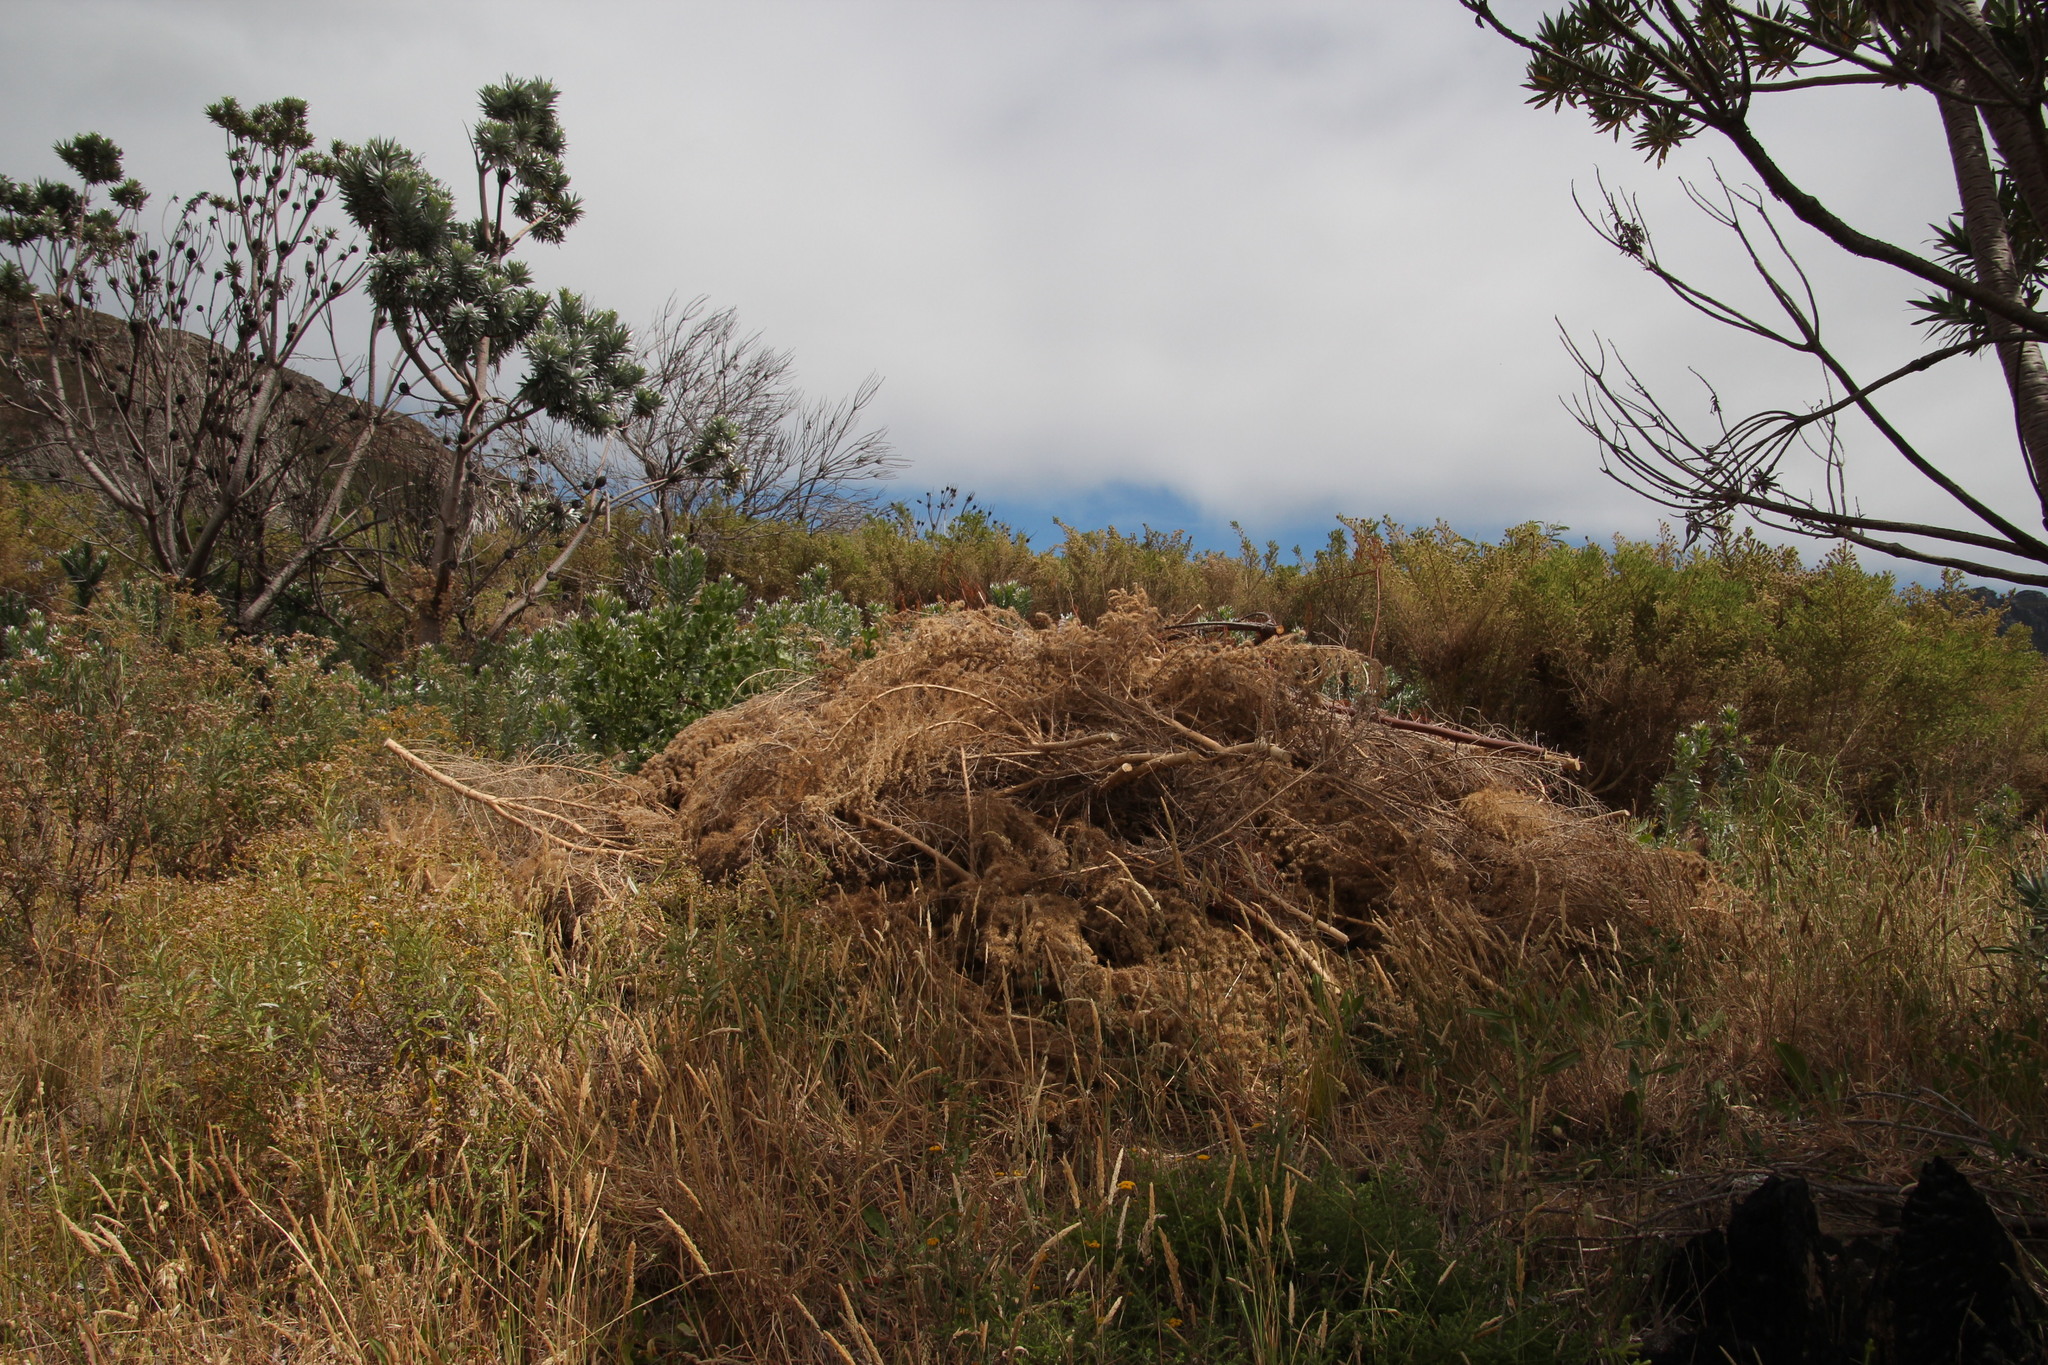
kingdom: Plantae
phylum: Tracheophyta
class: Magnoliopsida
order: Fabales
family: Fabaceae
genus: Aspalathus
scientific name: Aspalathus chenopoda
